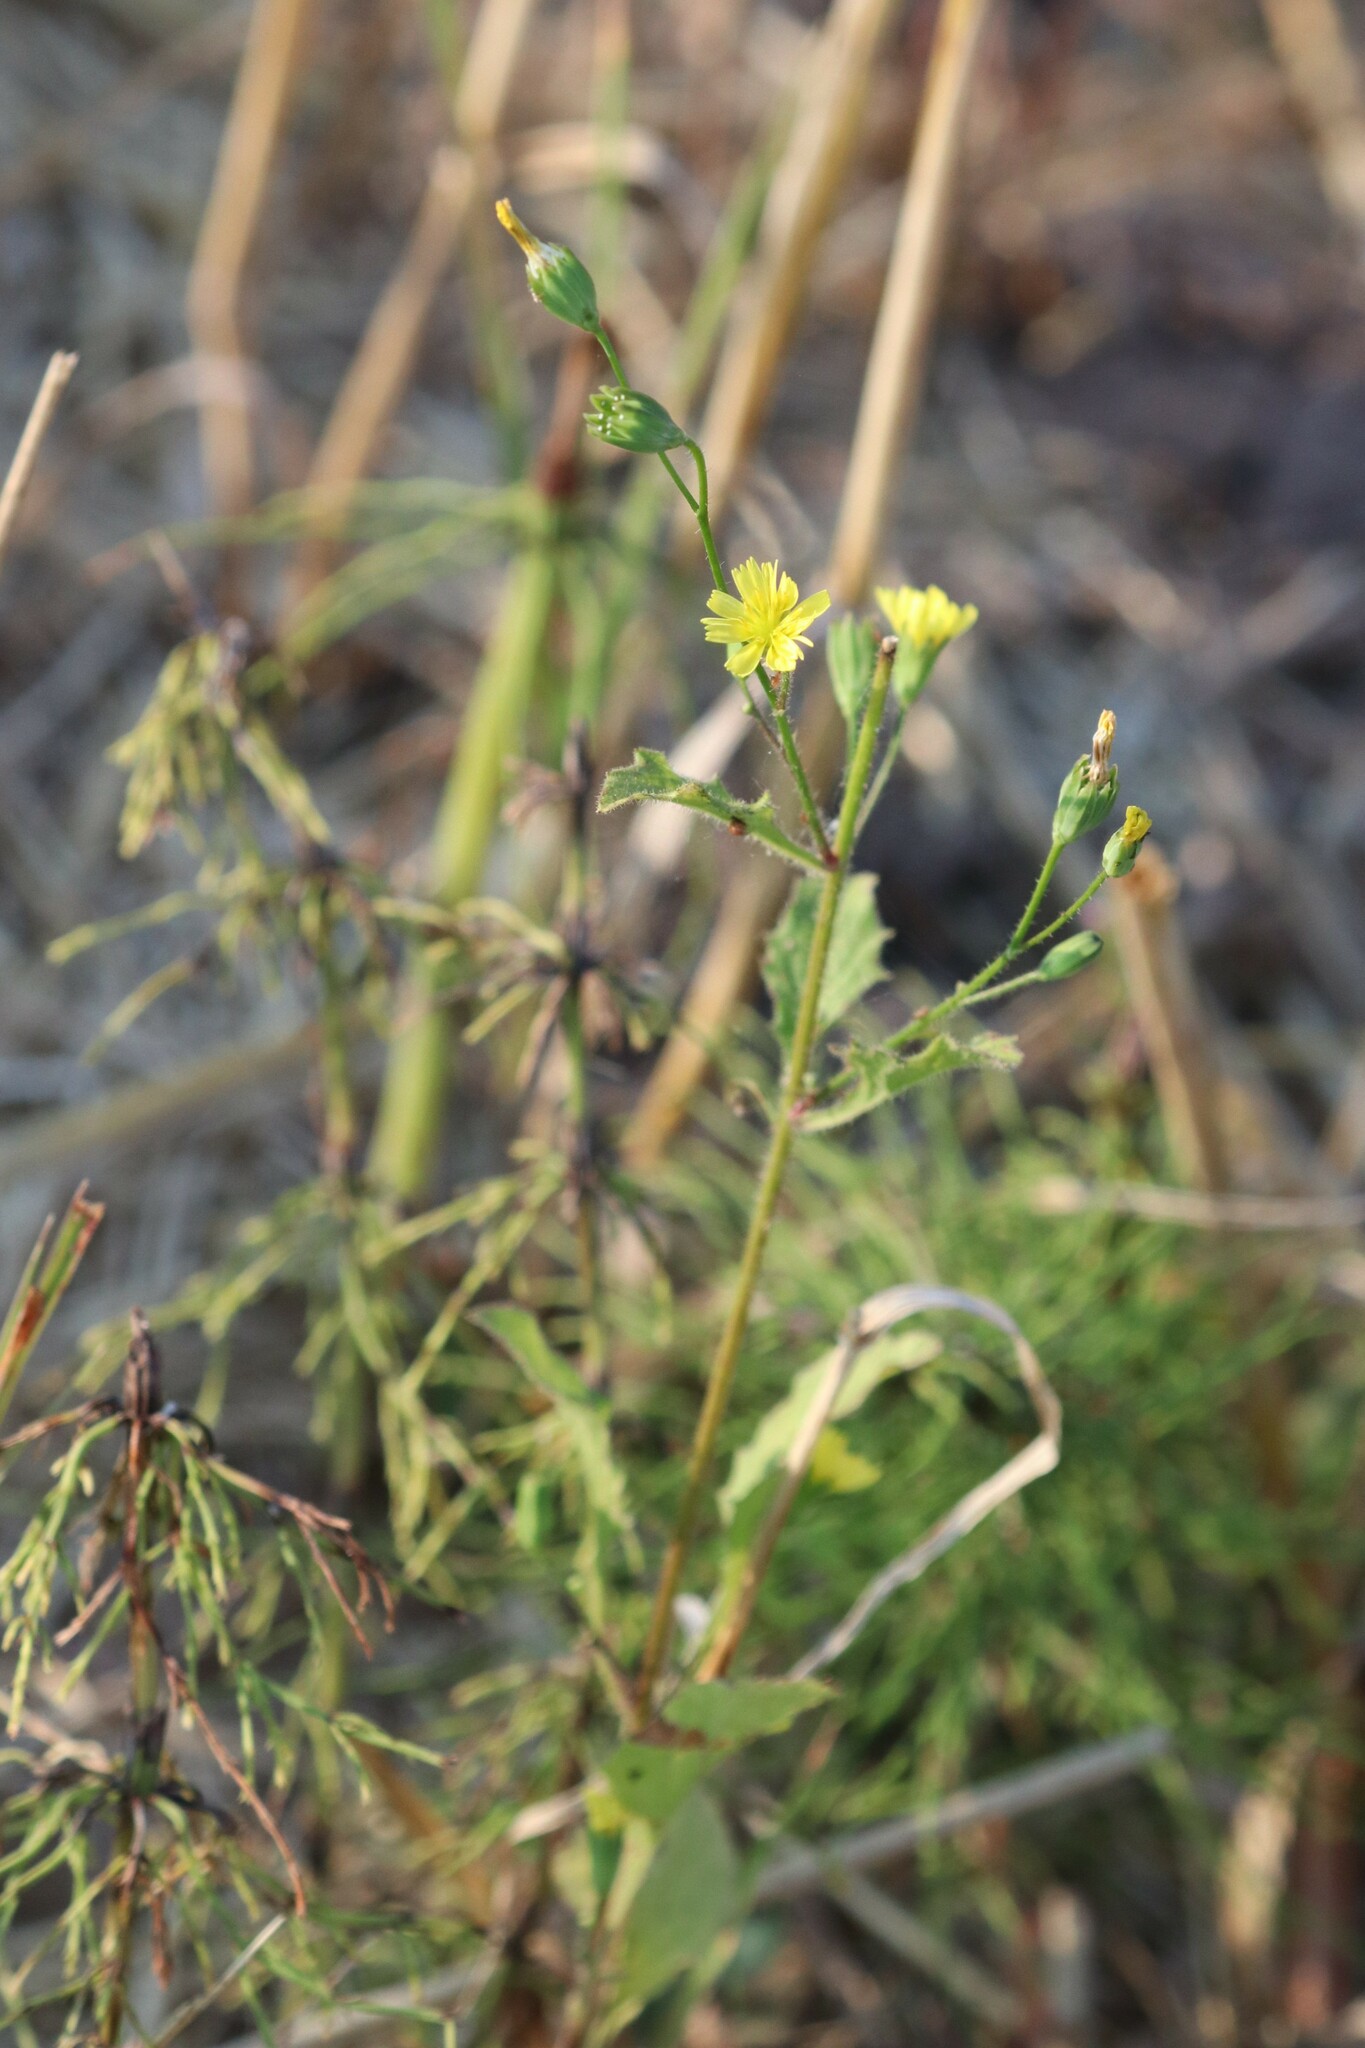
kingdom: Plantae
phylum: Tracheophyta
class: Magnoliopsida
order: Asterales
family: Asteraceae
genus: Lapsana
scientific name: Lapsana communis
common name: Nipplewort
